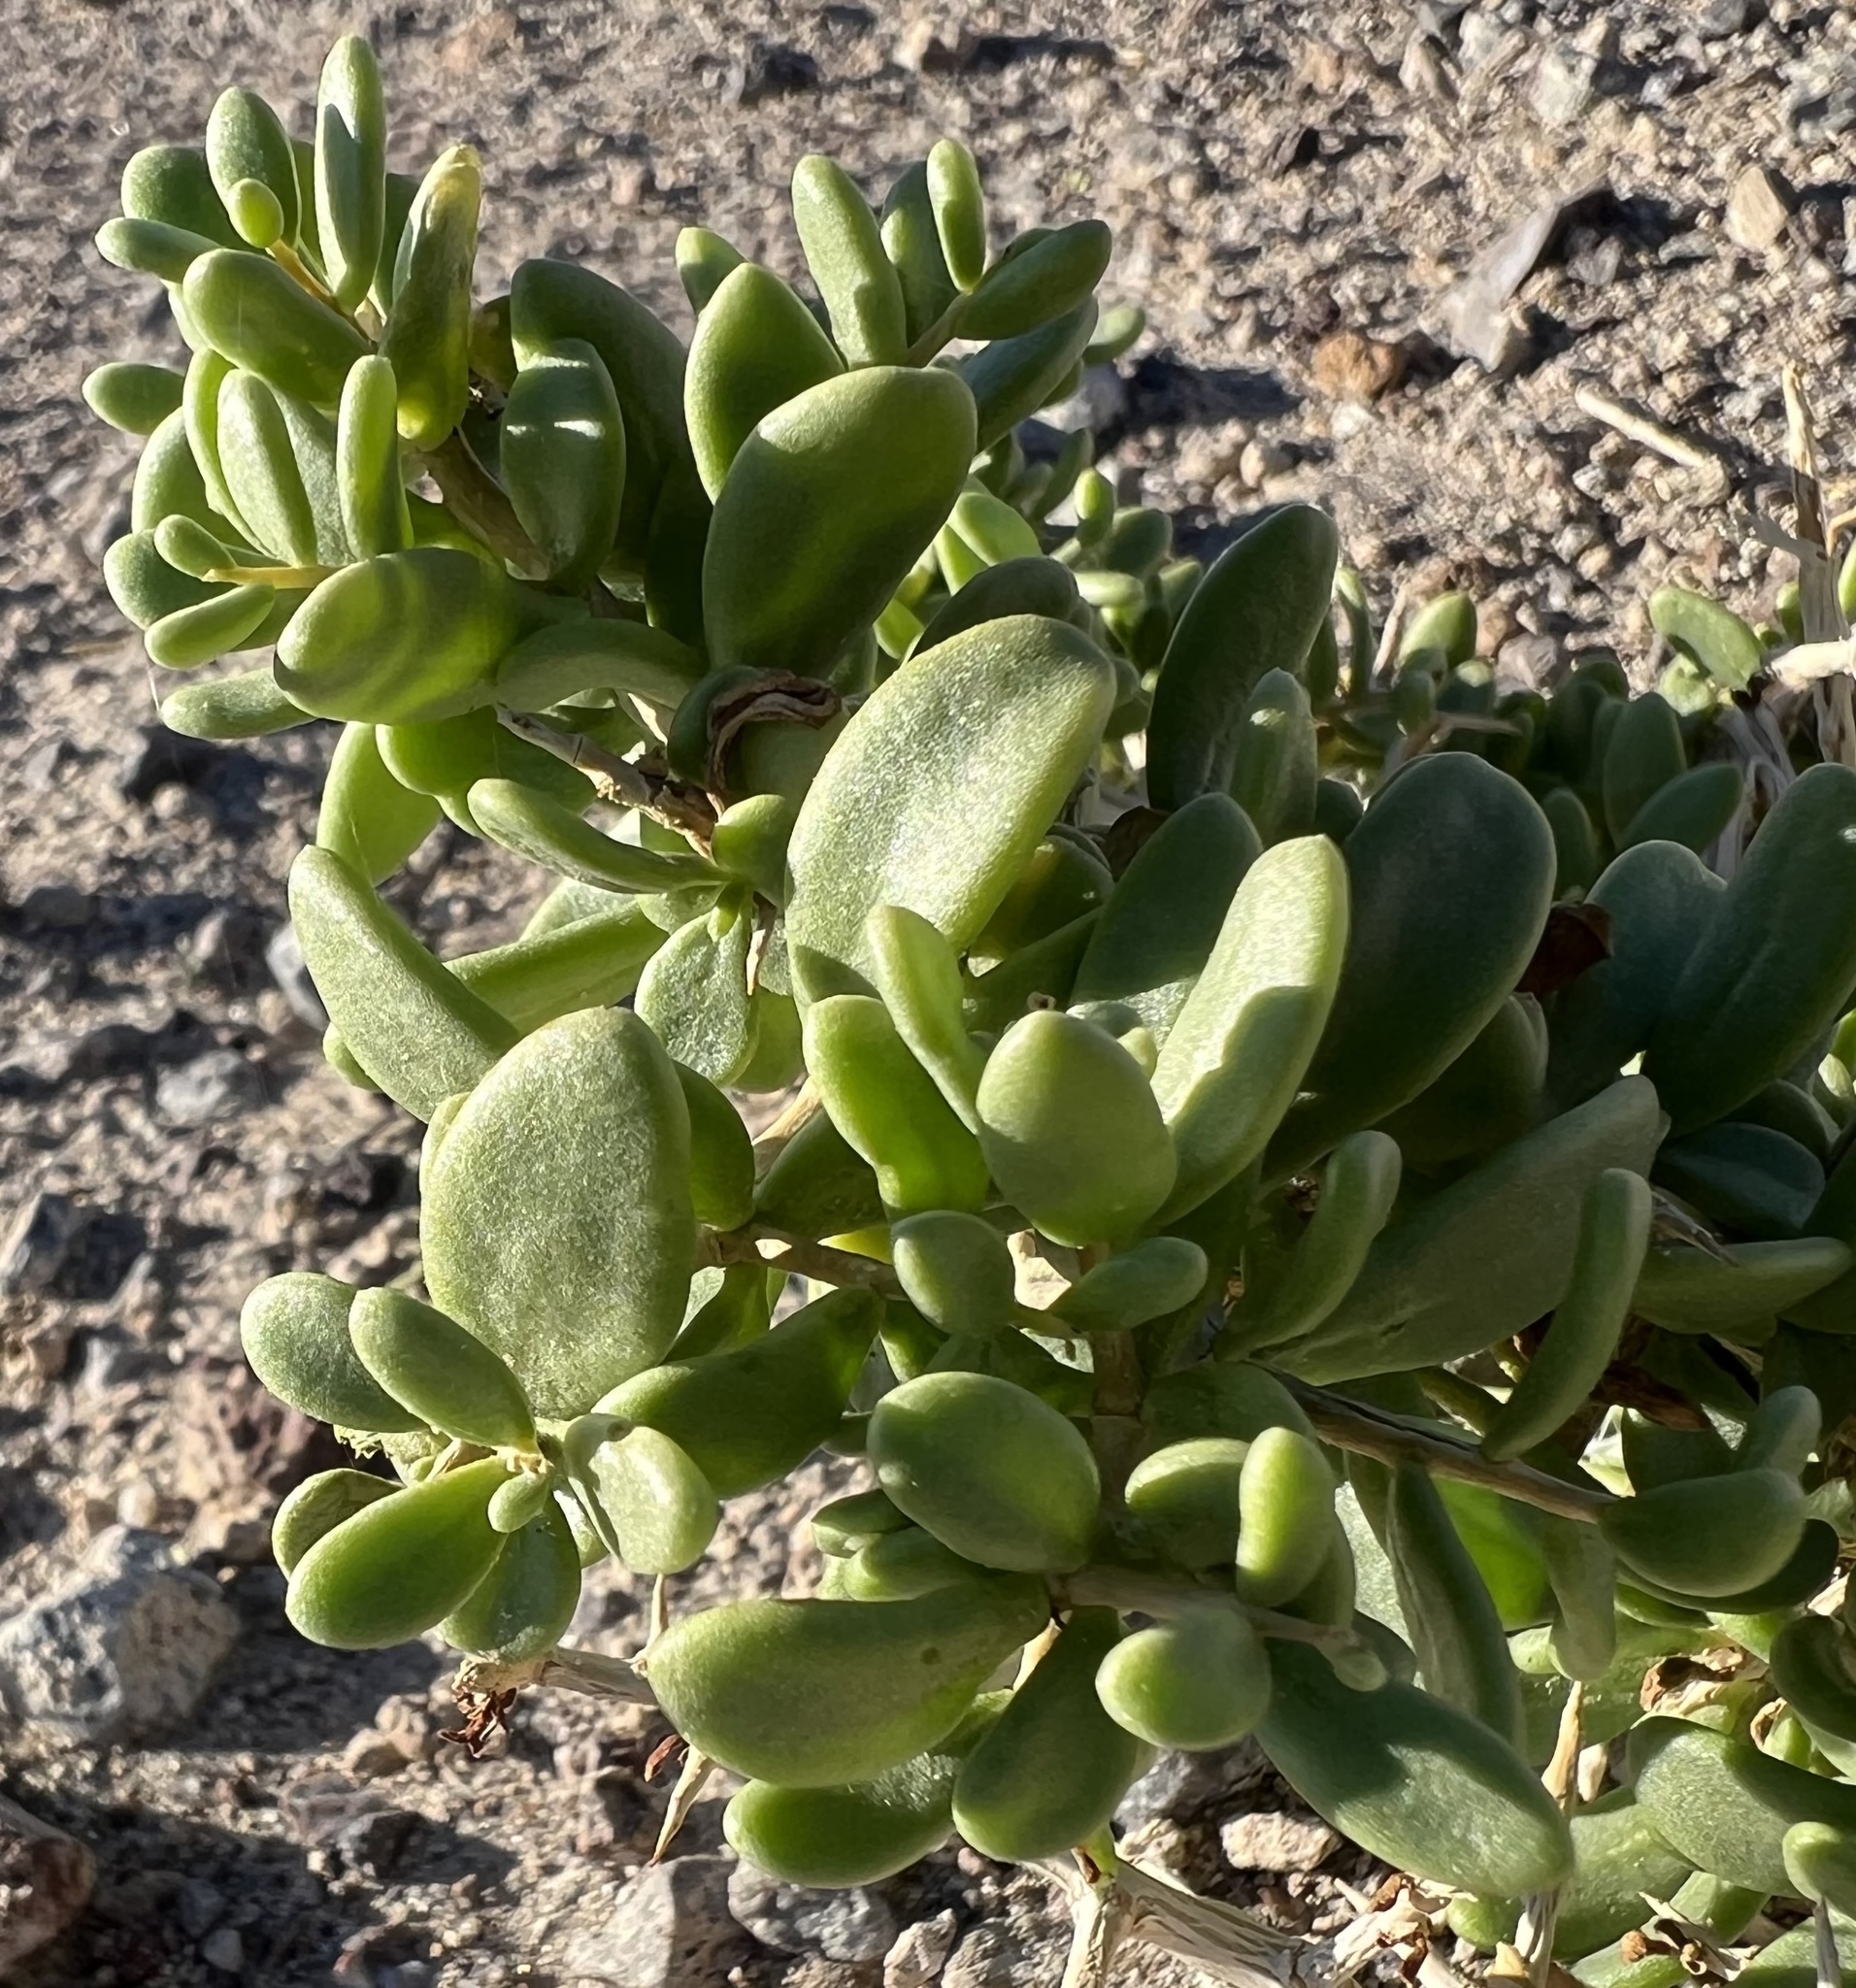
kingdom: Plantae
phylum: Tracheophyta
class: Magnoliopsida
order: Solanales
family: Solanaceae
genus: Lycium
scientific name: Lycium shockleyi
